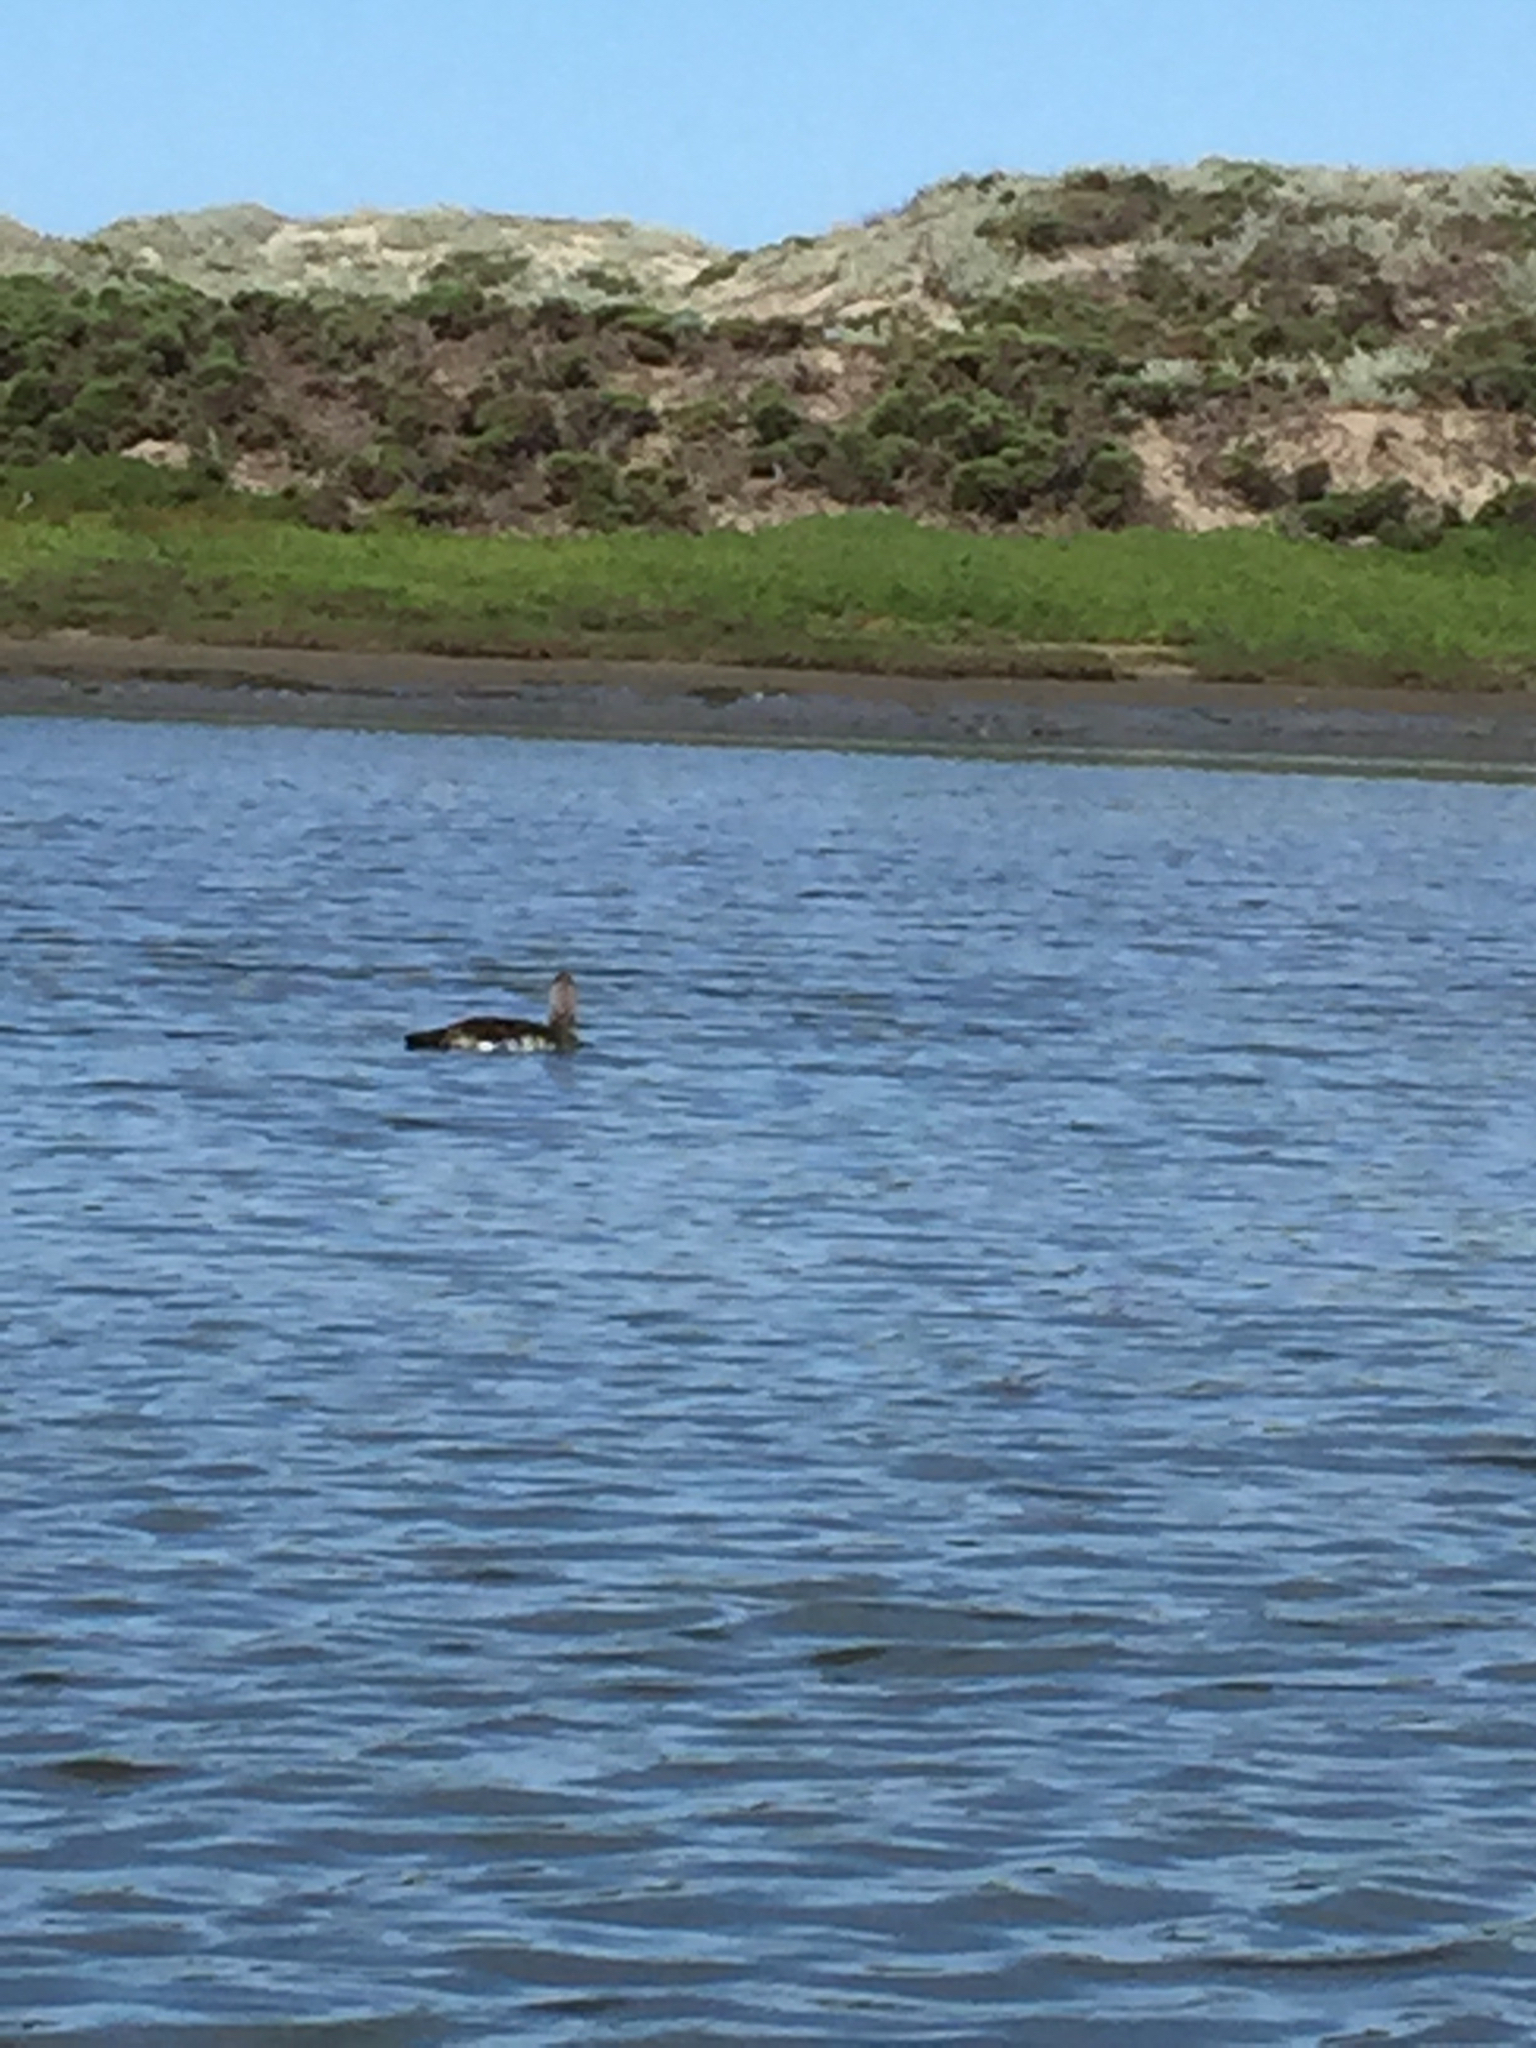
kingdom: Animalia
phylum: Chordata
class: Aves
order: Gaviiformes
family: Gaviidae
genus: Gavia
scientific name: Gavia
